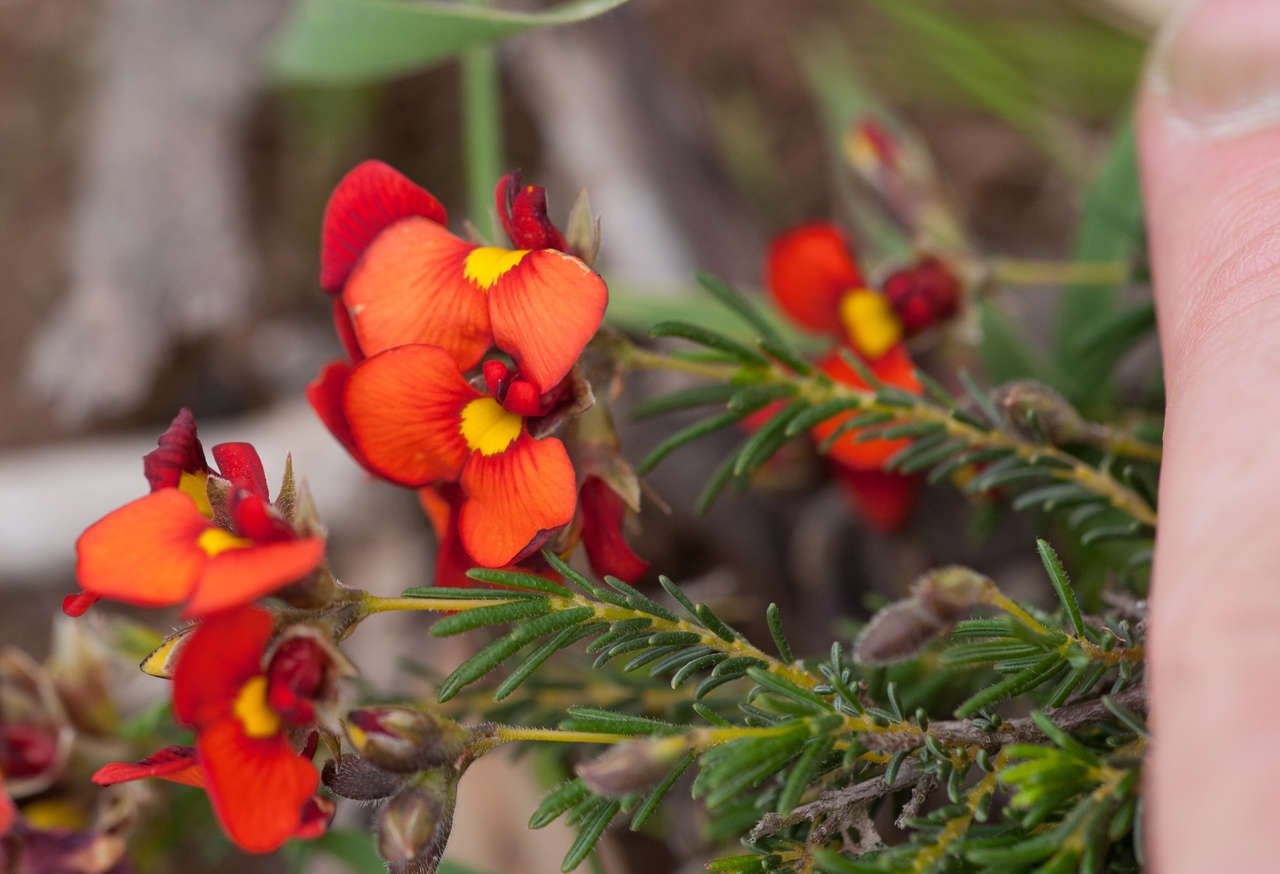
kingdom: Plantae
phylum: Tracheophyta
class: Magnoliopsida
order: Fabales
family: Fabaceae
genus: Dillwynia
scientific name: Dillwynia hispida
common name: Red parrot-pea
